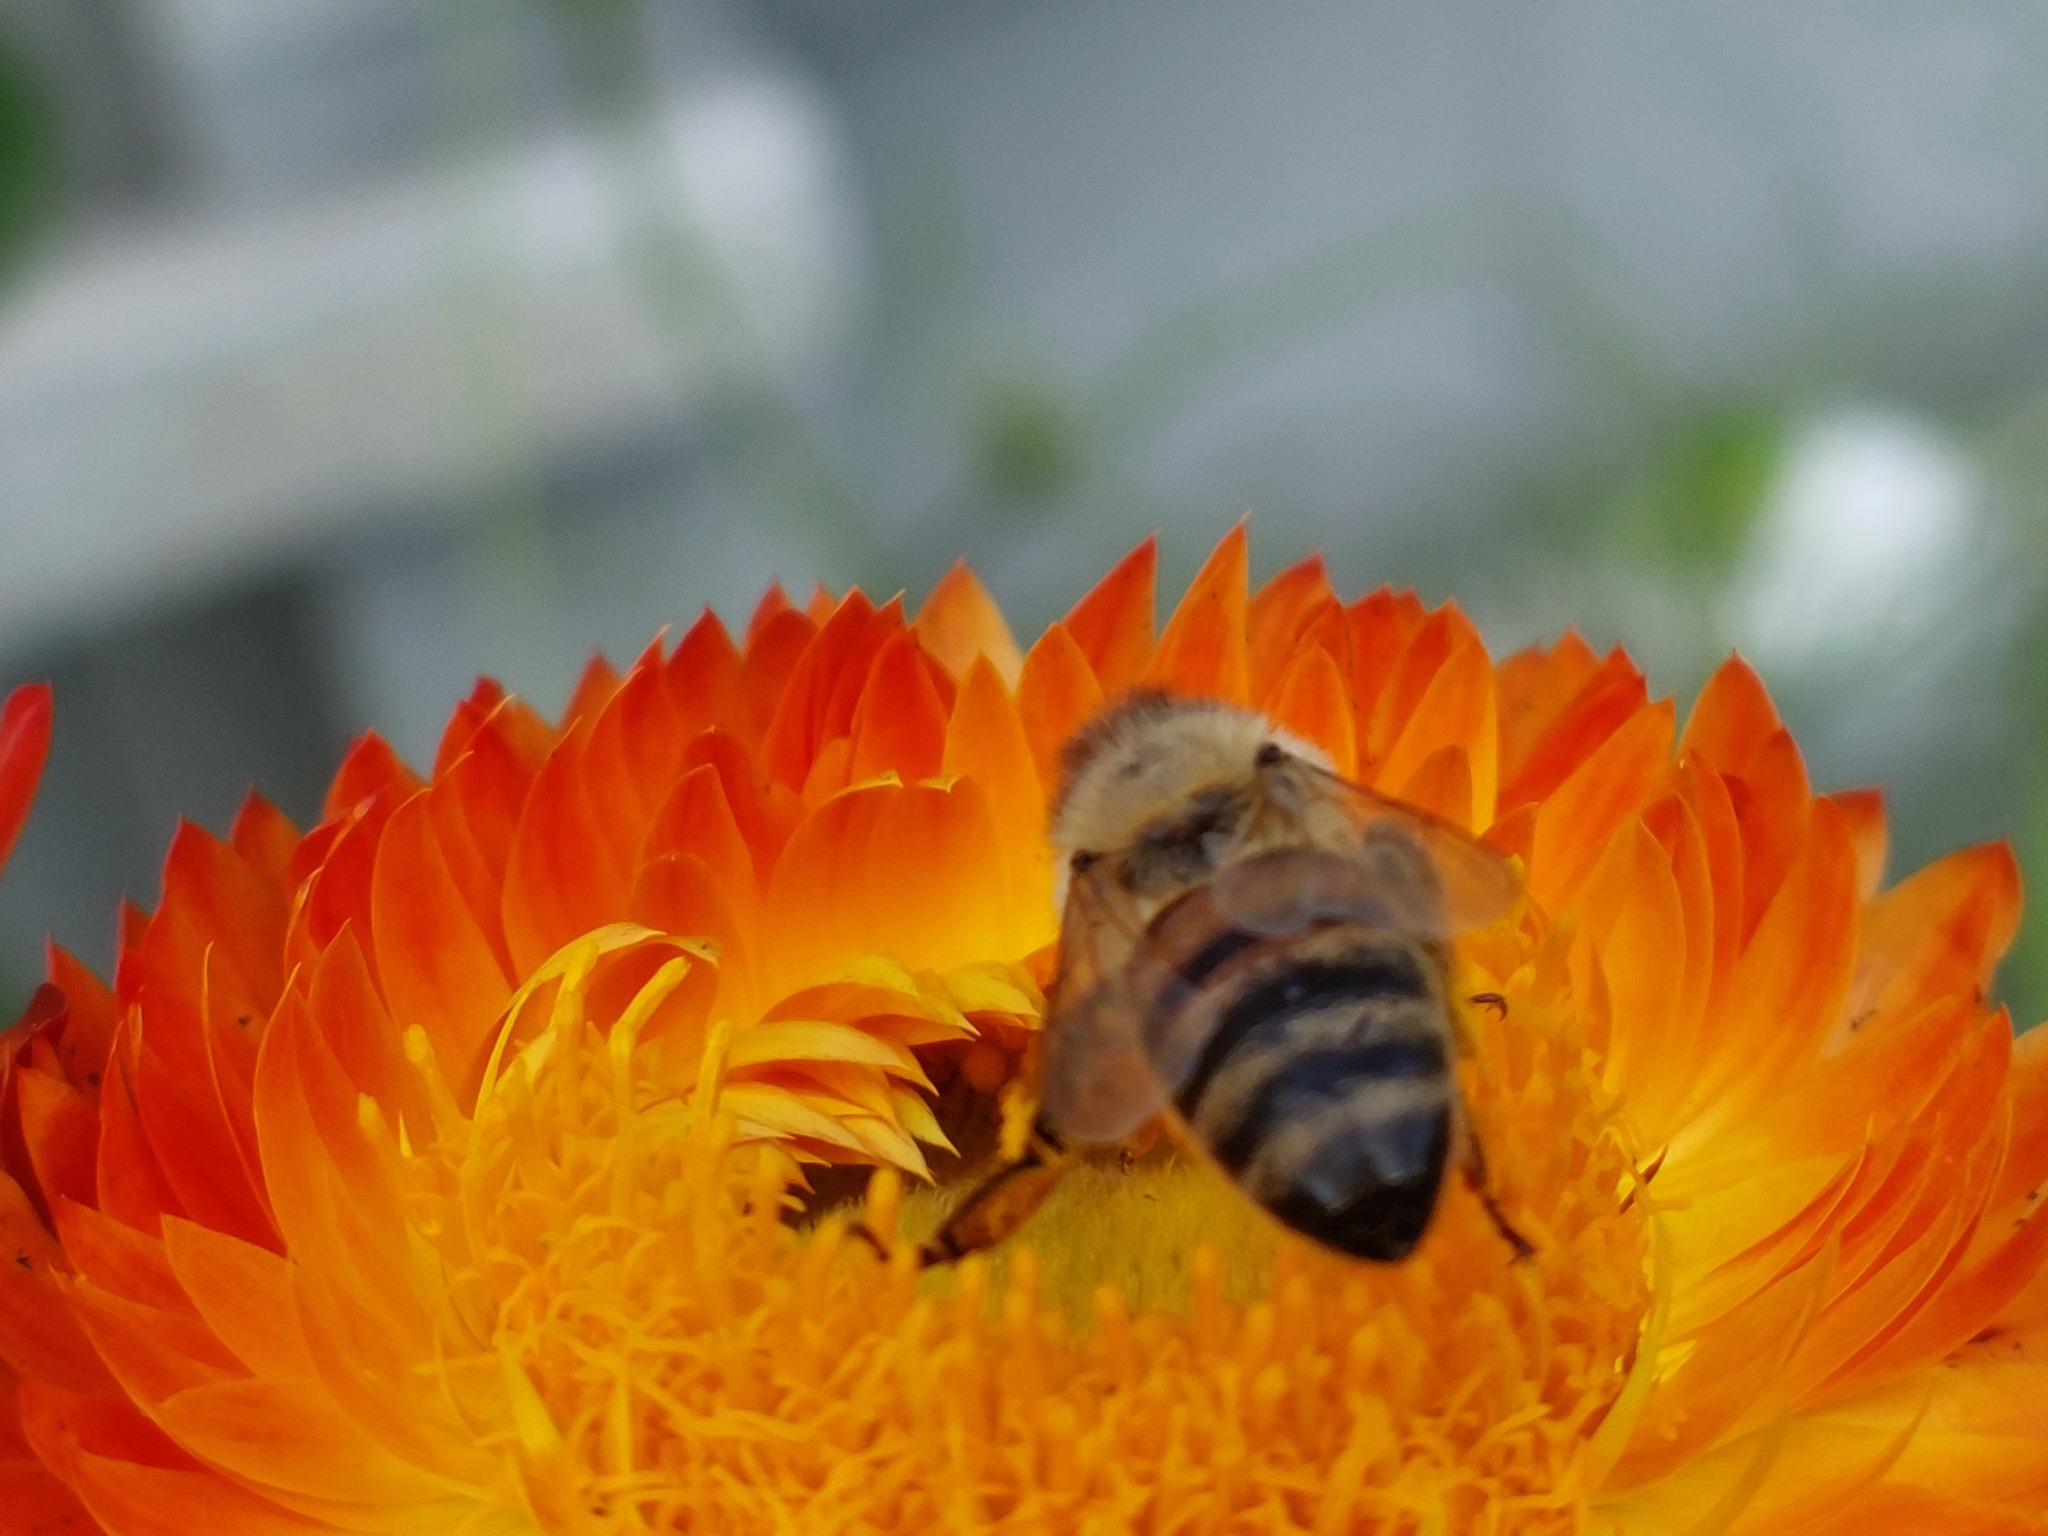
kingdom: Animalia
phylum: Arthropoda
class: Insecta
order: Hymenoptera
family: Apidae
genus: Apis
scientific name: Apis mellifera
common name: Honey bee
